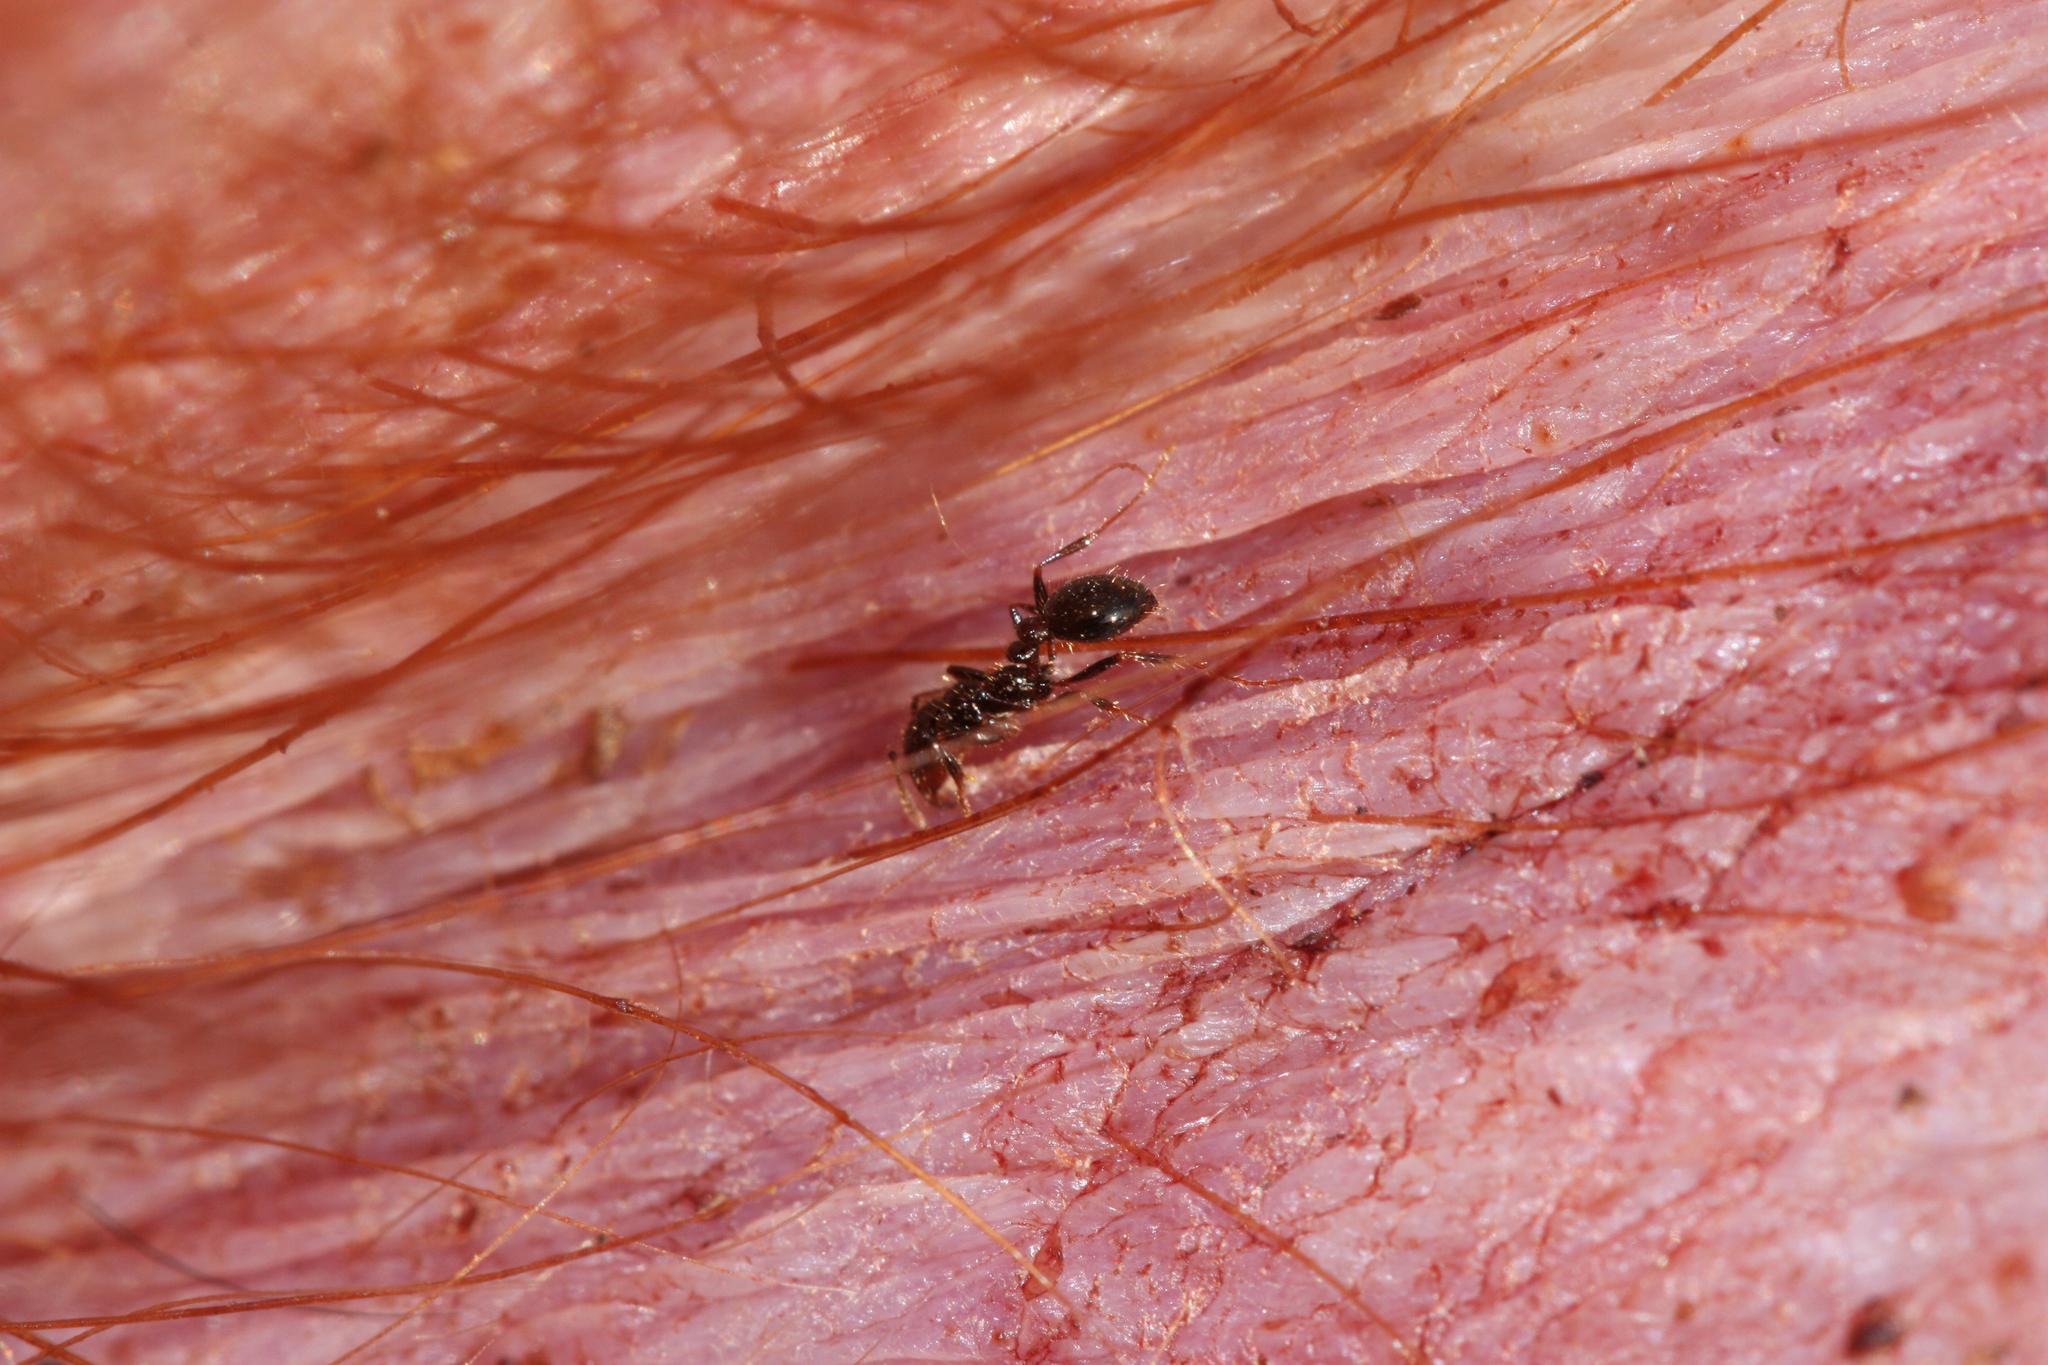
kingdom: Animalia
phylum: Arthropoda
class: Insecta
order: Hymenoptera
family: Formicidae
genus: Solenopsis
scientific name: Solenopsis xyloni
